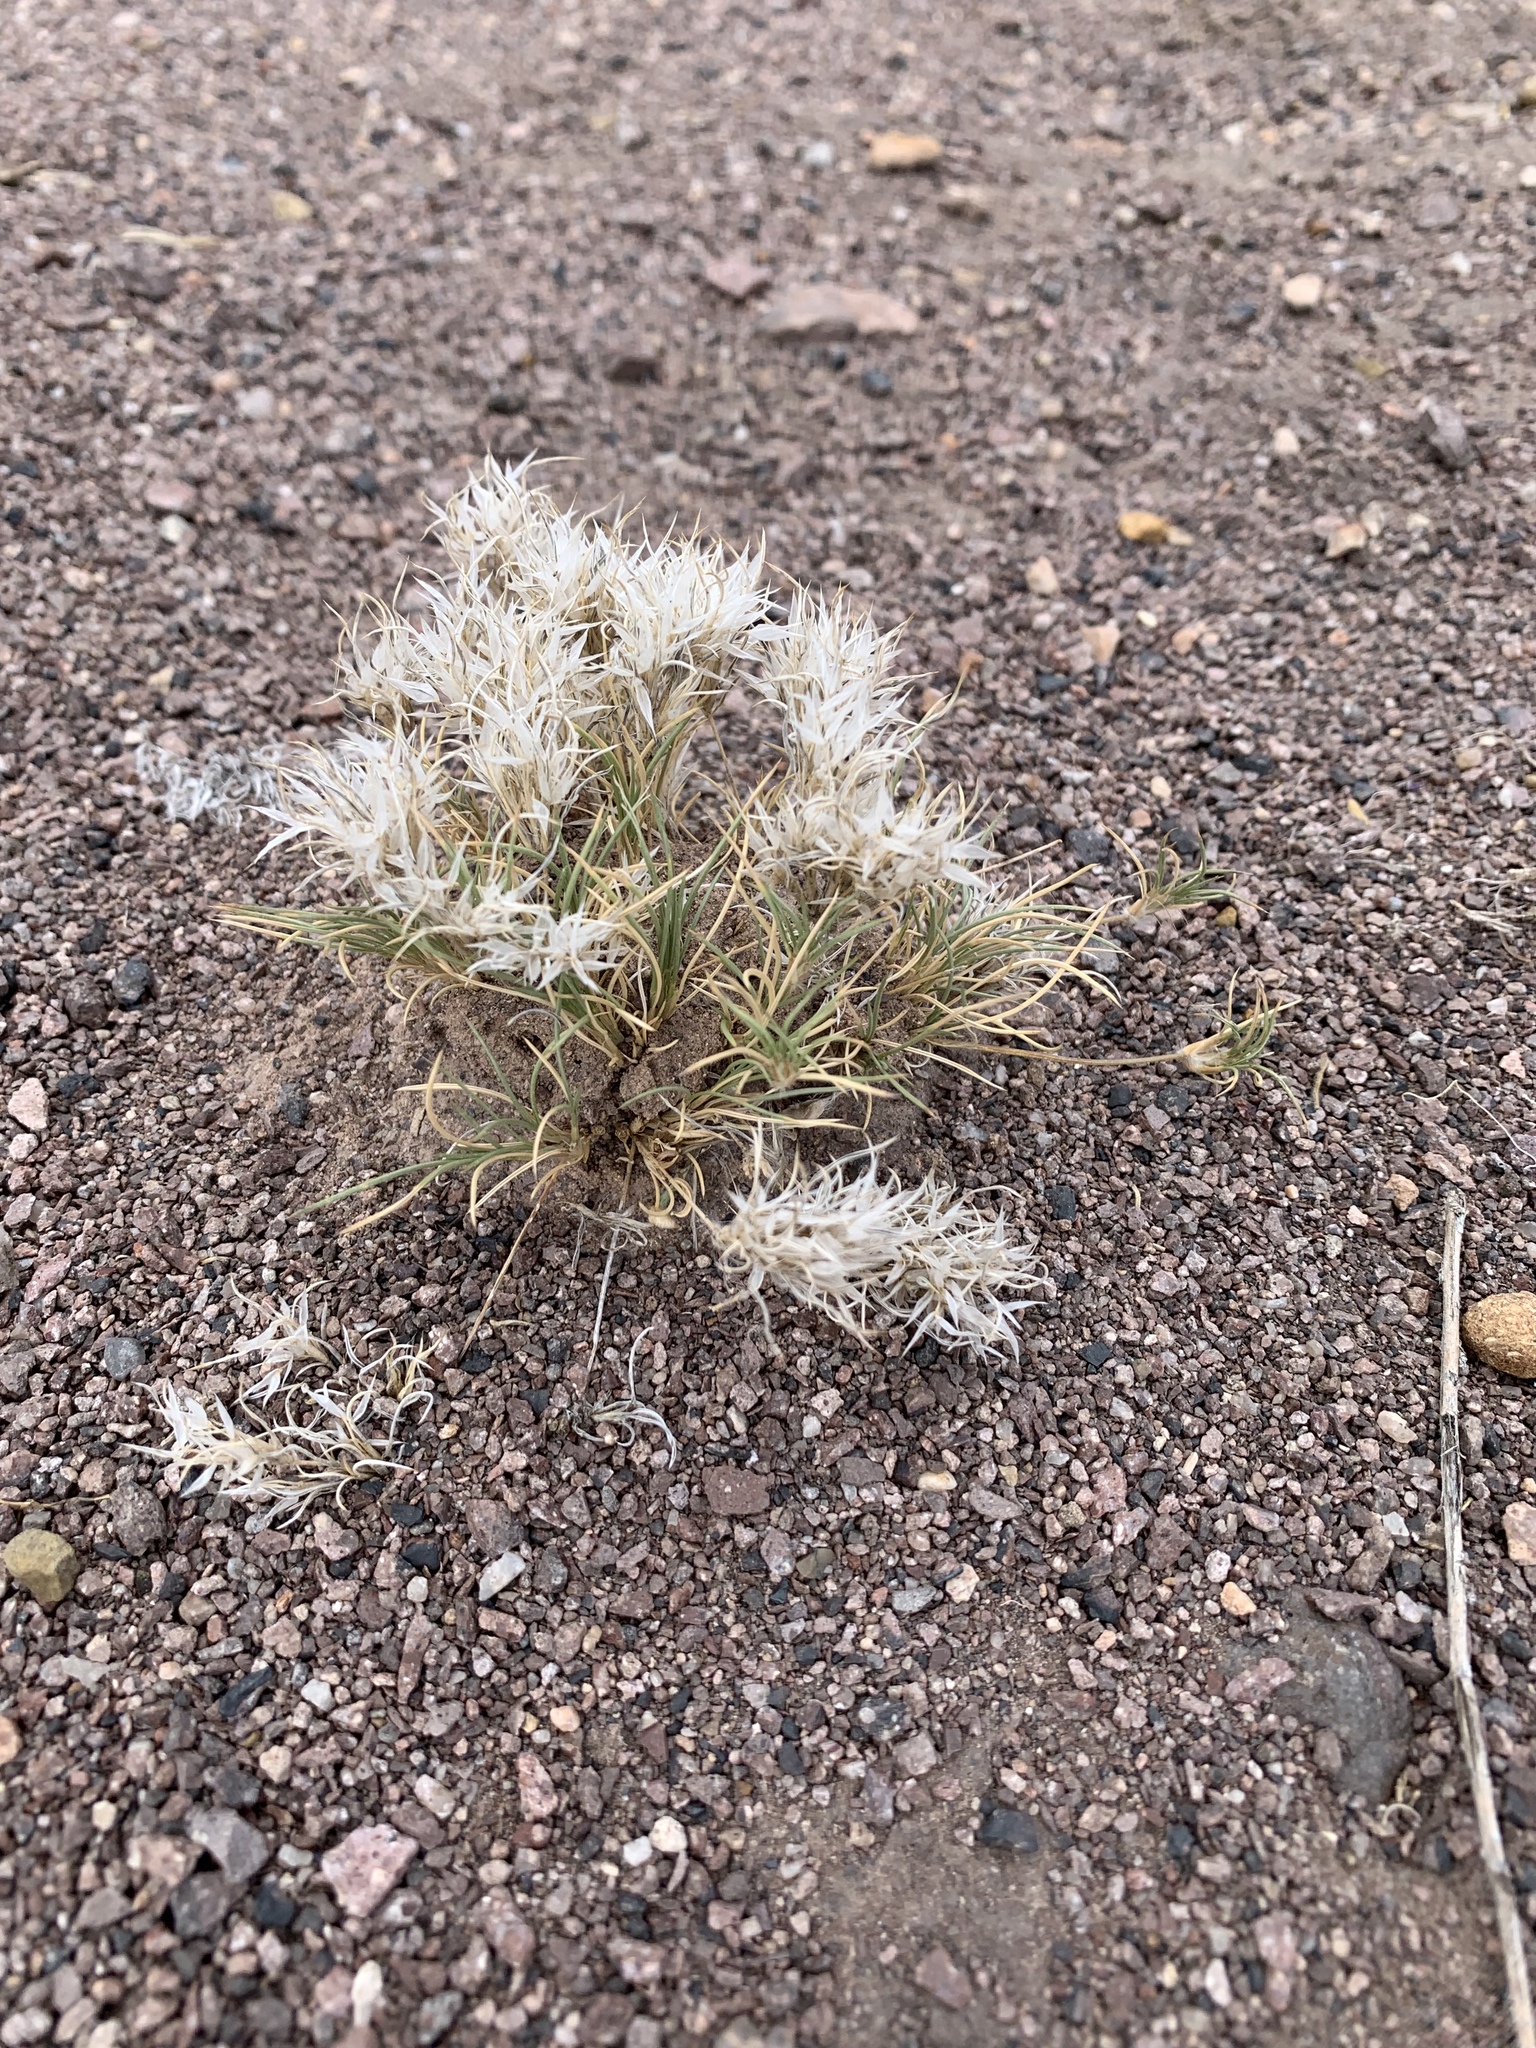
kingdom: Plantae
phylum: Tracheophyta
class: Liliopsida
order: Poales
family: Poaceae
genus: Dasyochloa
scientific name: Dasyochloa pulchella
